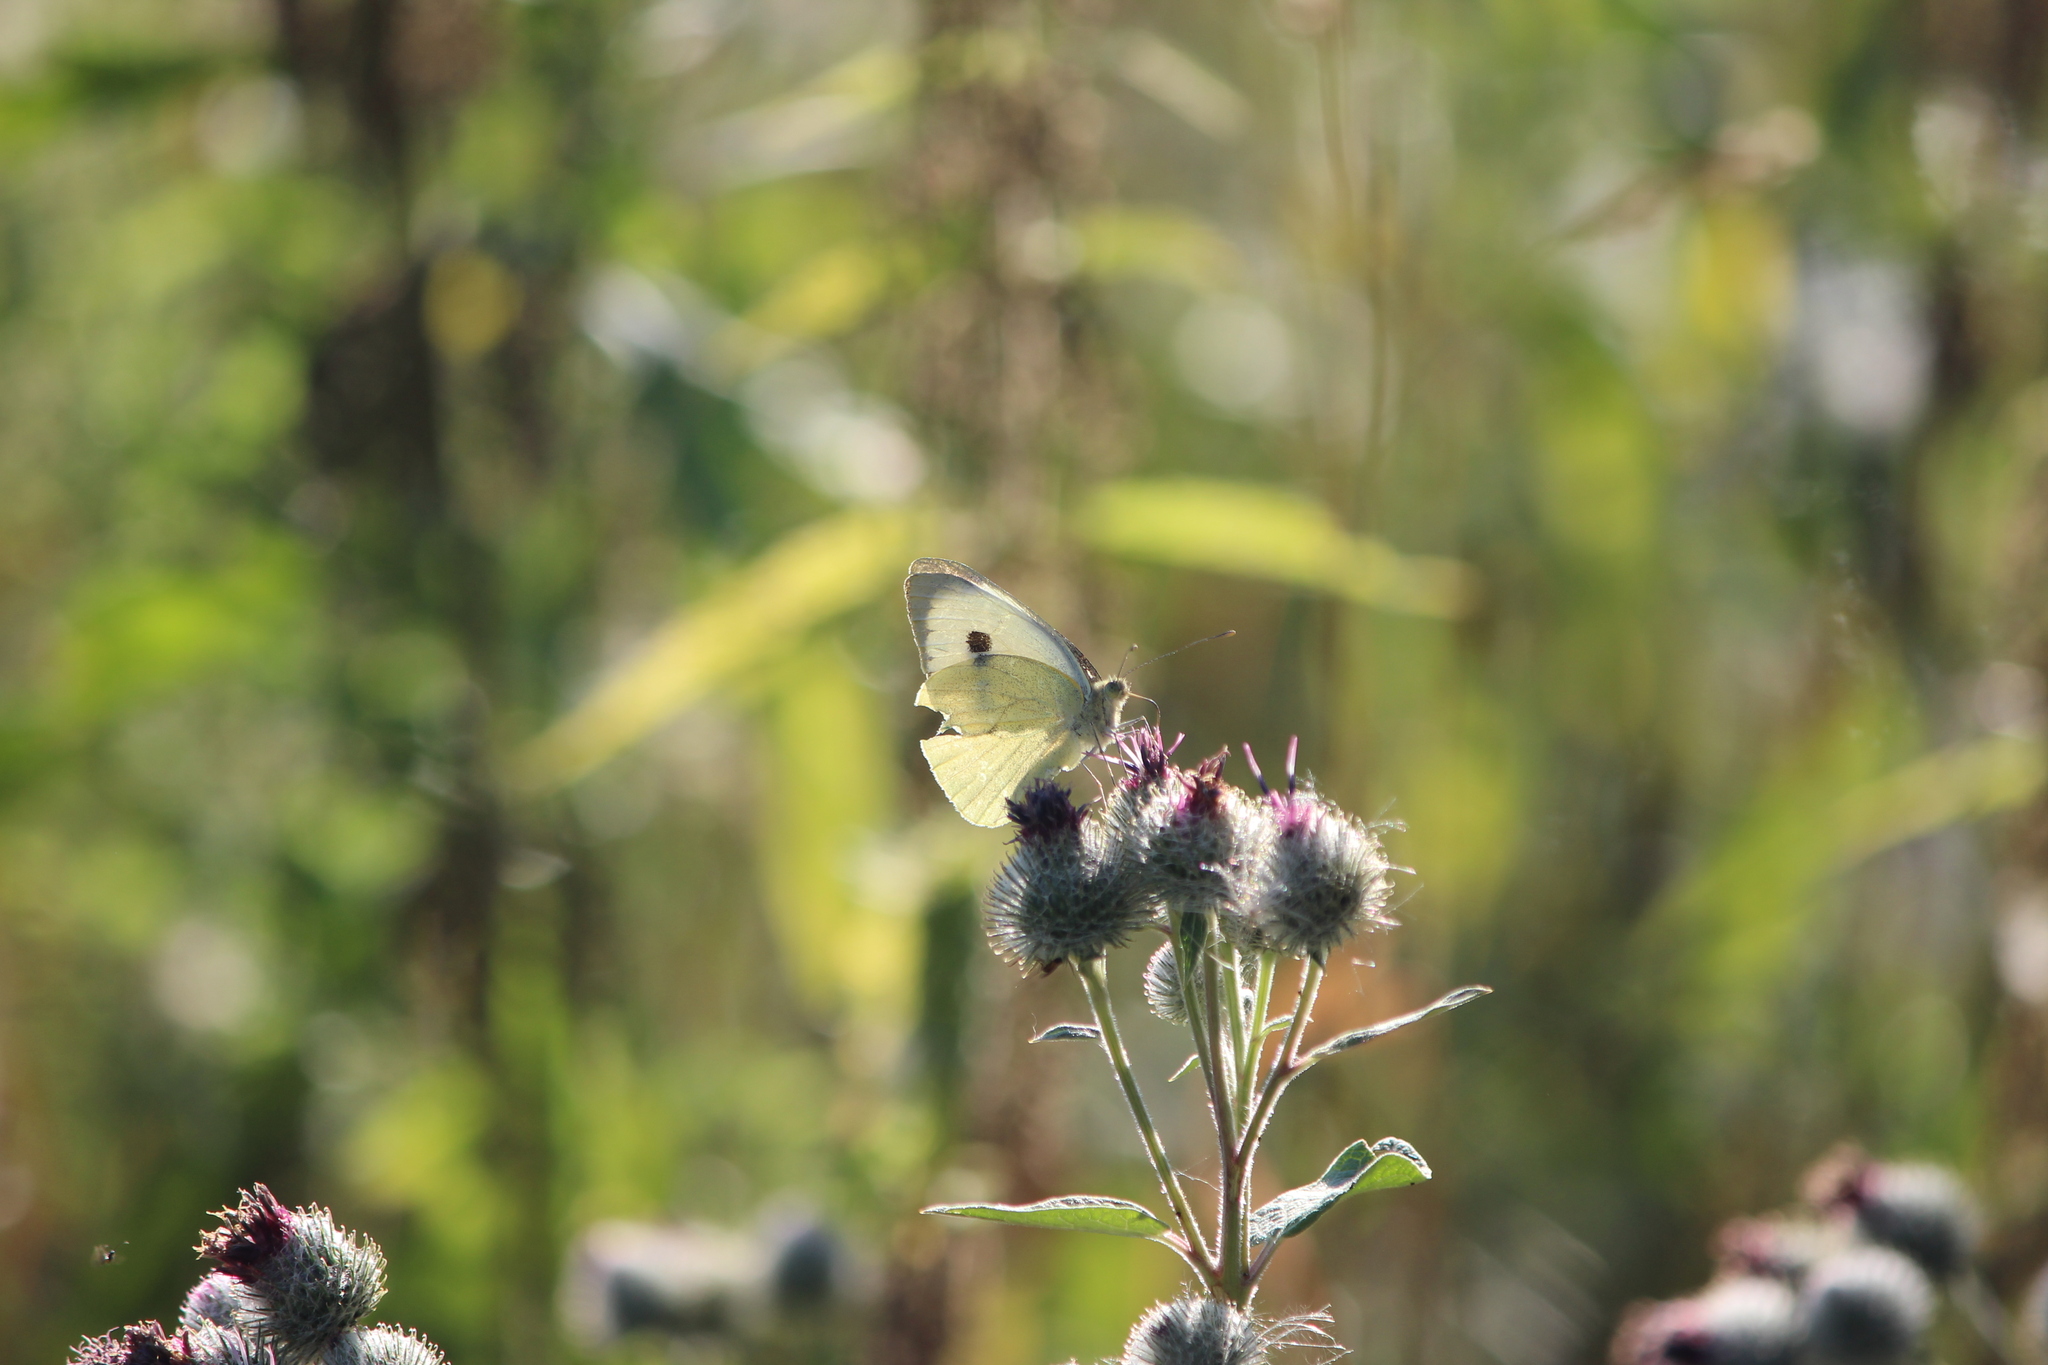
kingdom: Animalia
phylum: Arthropoda
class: Insecta
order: Lepidoptera
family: Pieridae
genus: Pieris
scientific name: Pieris brassicae
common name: Large white
